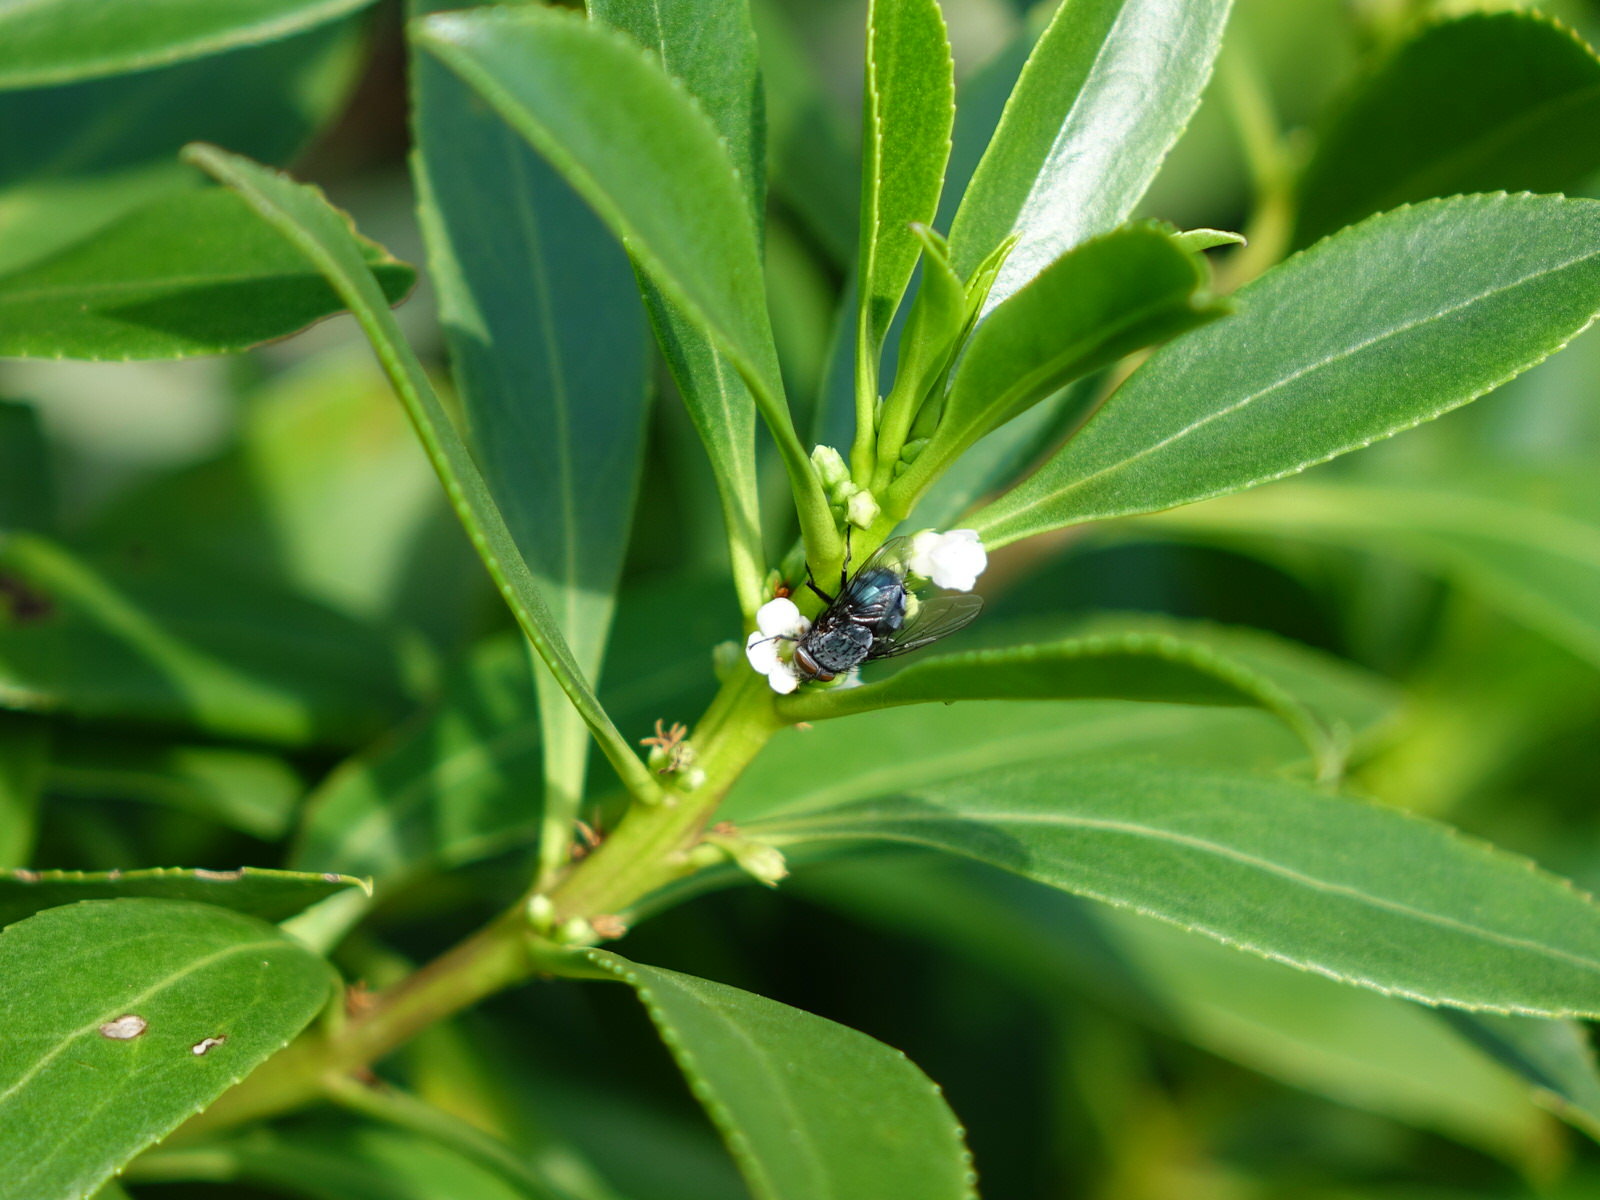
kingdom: Animalia
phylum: Arthropoda
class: Insecta
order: Diptera
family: Calliphoridae
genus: Calliphora
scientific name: Calliphora vicina
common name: Common blow flie
